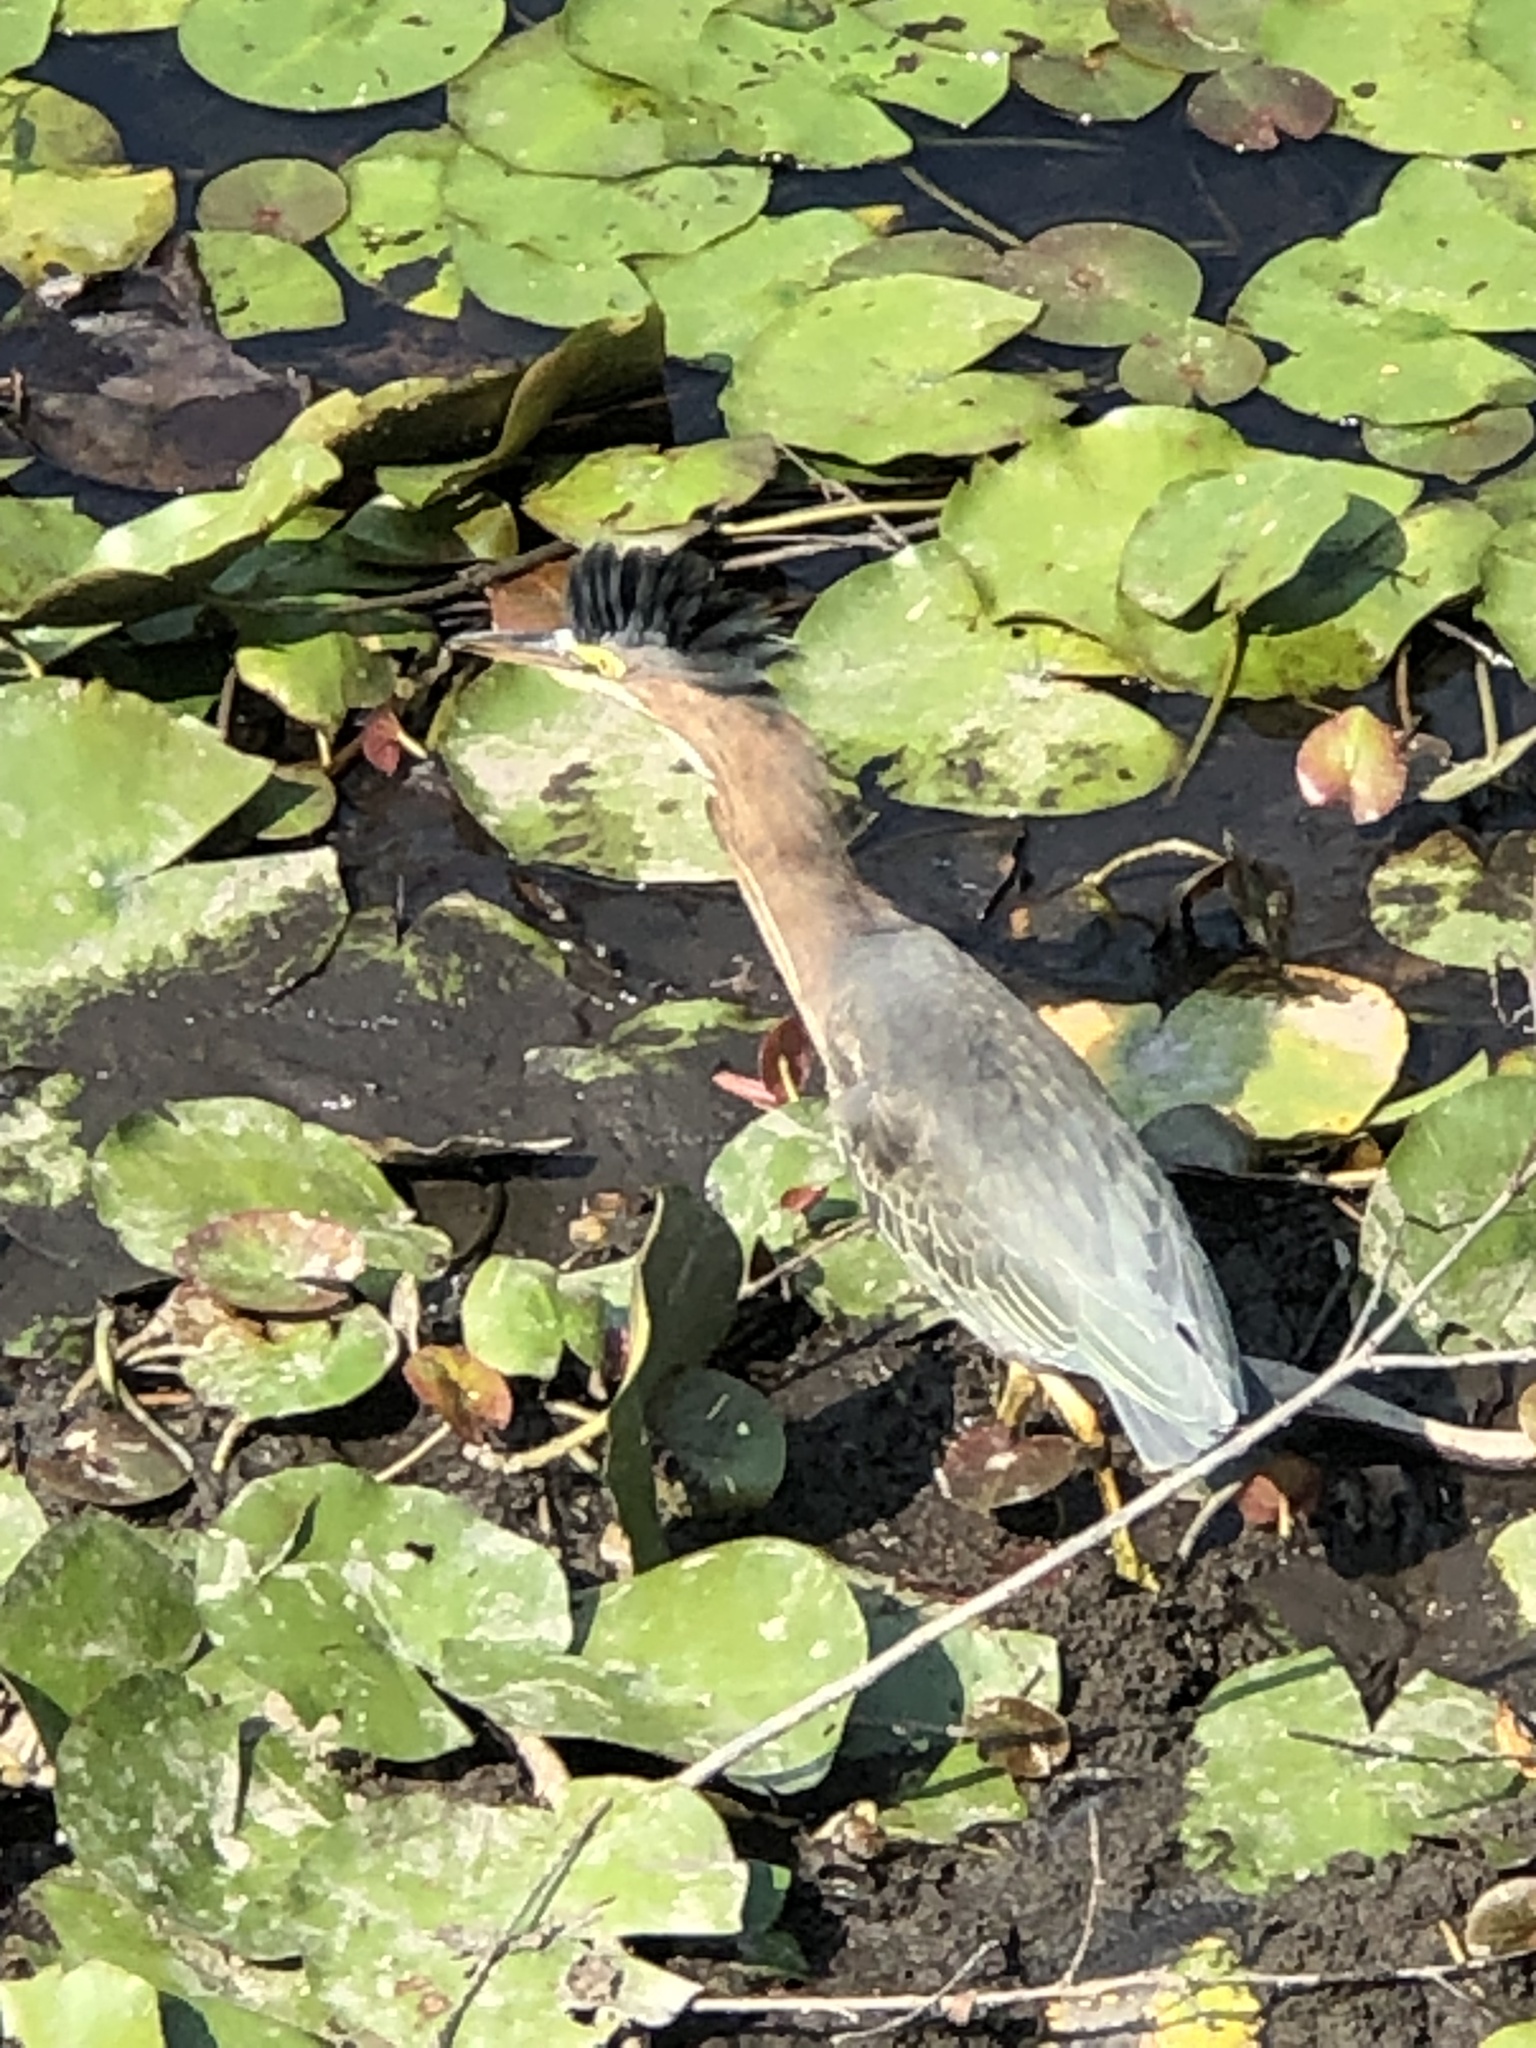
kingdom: Animalia
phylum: Chordata
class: Aves
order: Pelecaniformes
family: Ardeidae
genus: Butorides
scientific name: Butorides virescens
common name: Green heron
